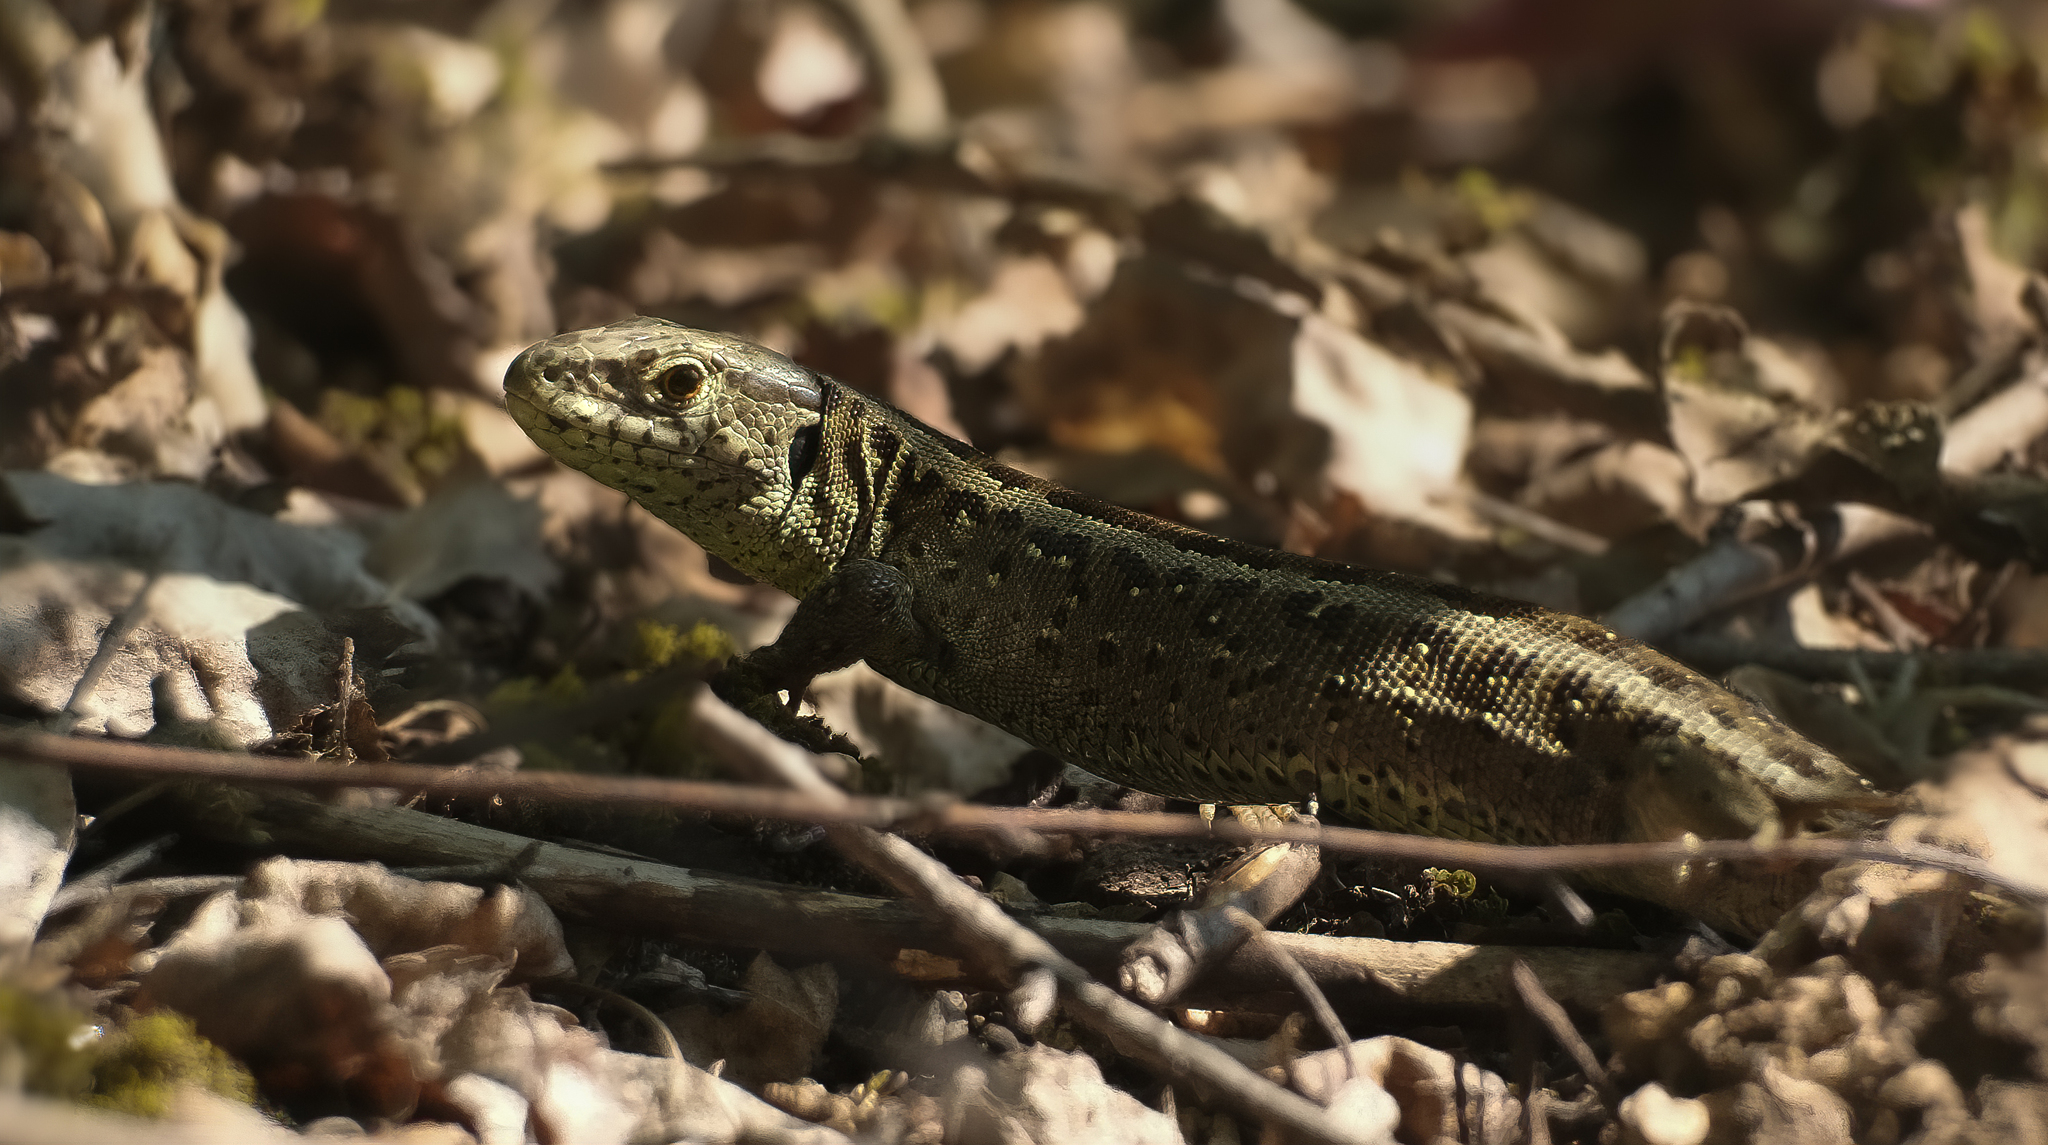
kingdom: Animalia
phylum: Chordata
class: Squamata
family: Lacertidae
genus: Lacerta
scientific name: Lacerta agilis
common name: Sand lizard
